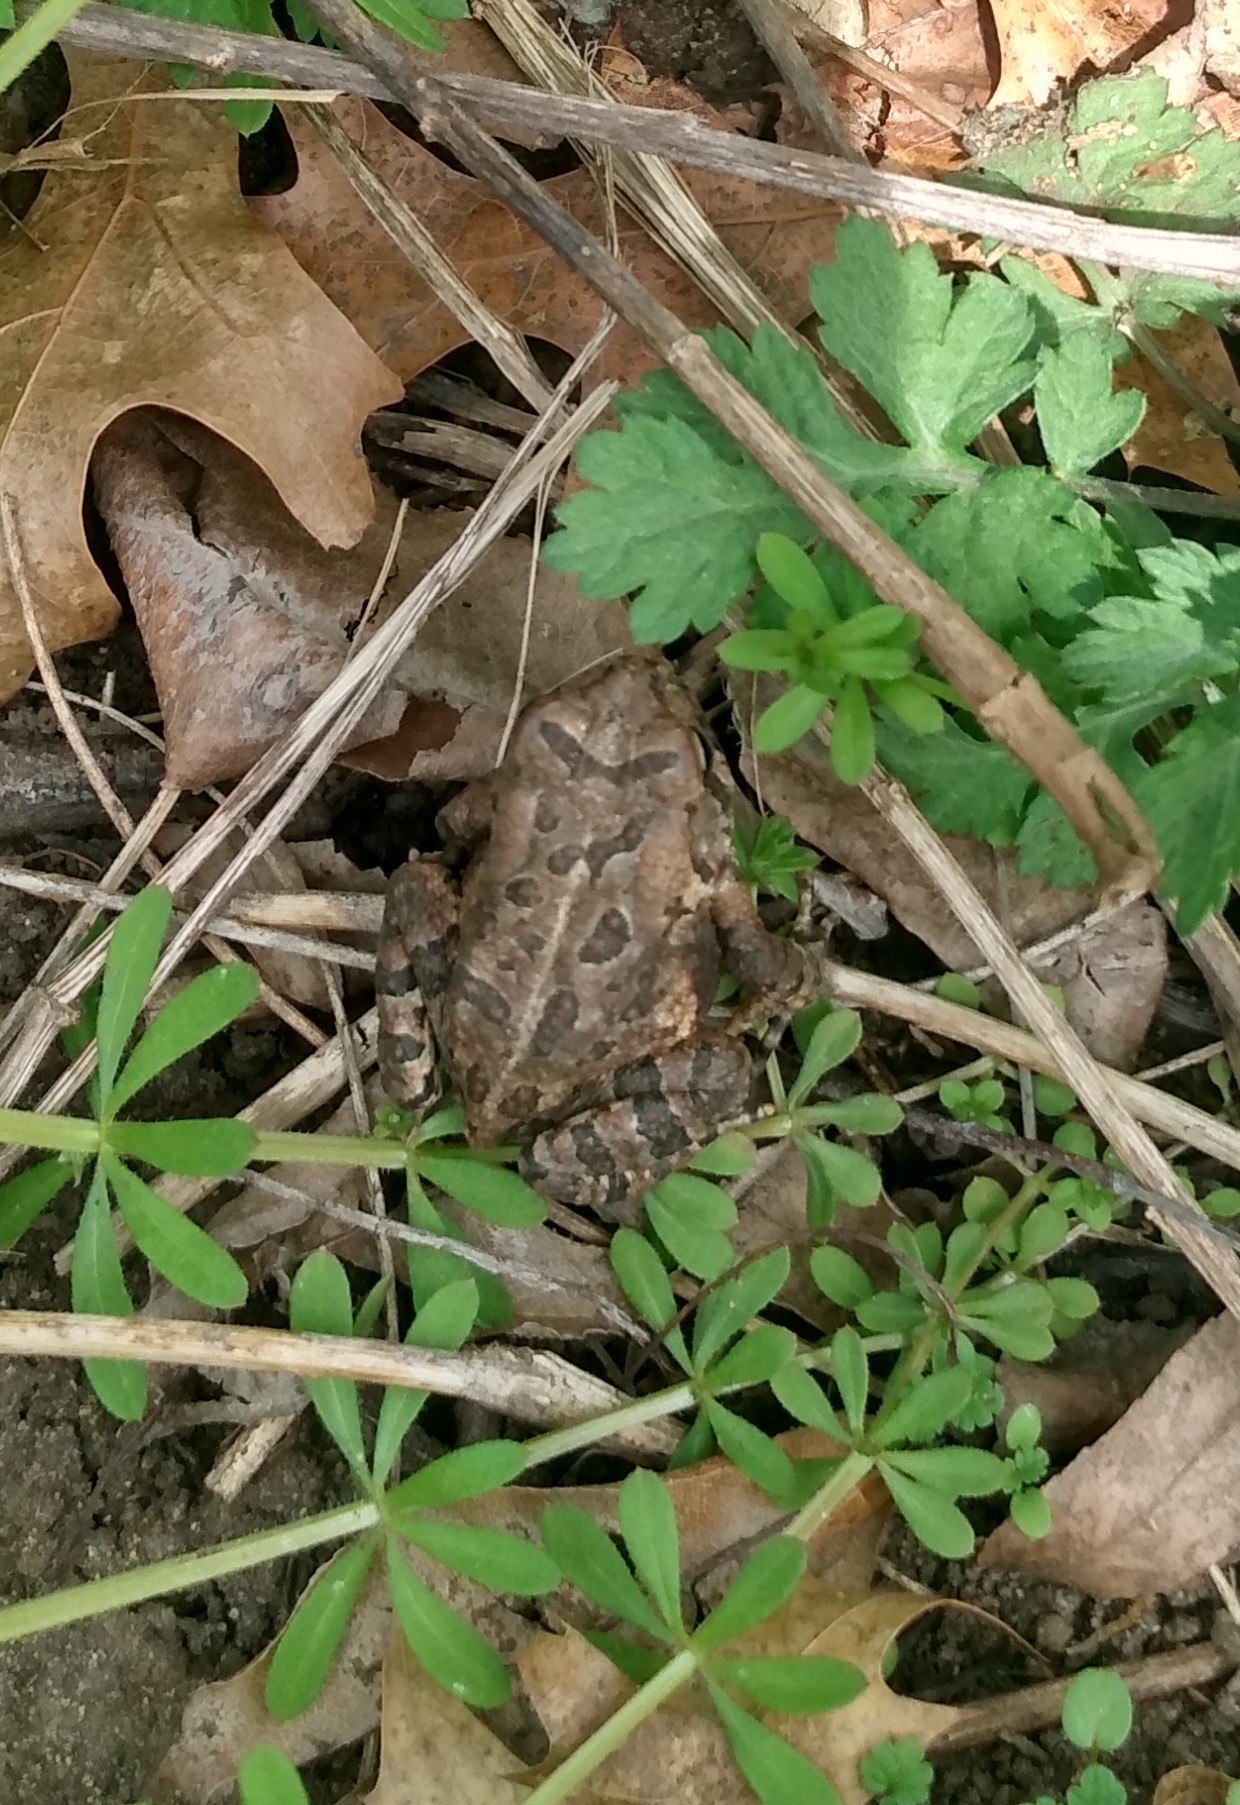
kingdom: Animalia
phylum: Chordata
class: Amphibia
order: Anura
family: Bufonidae
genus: Anaxyrus
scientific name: Anaxyrus fowleri
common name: Fowler's toad
